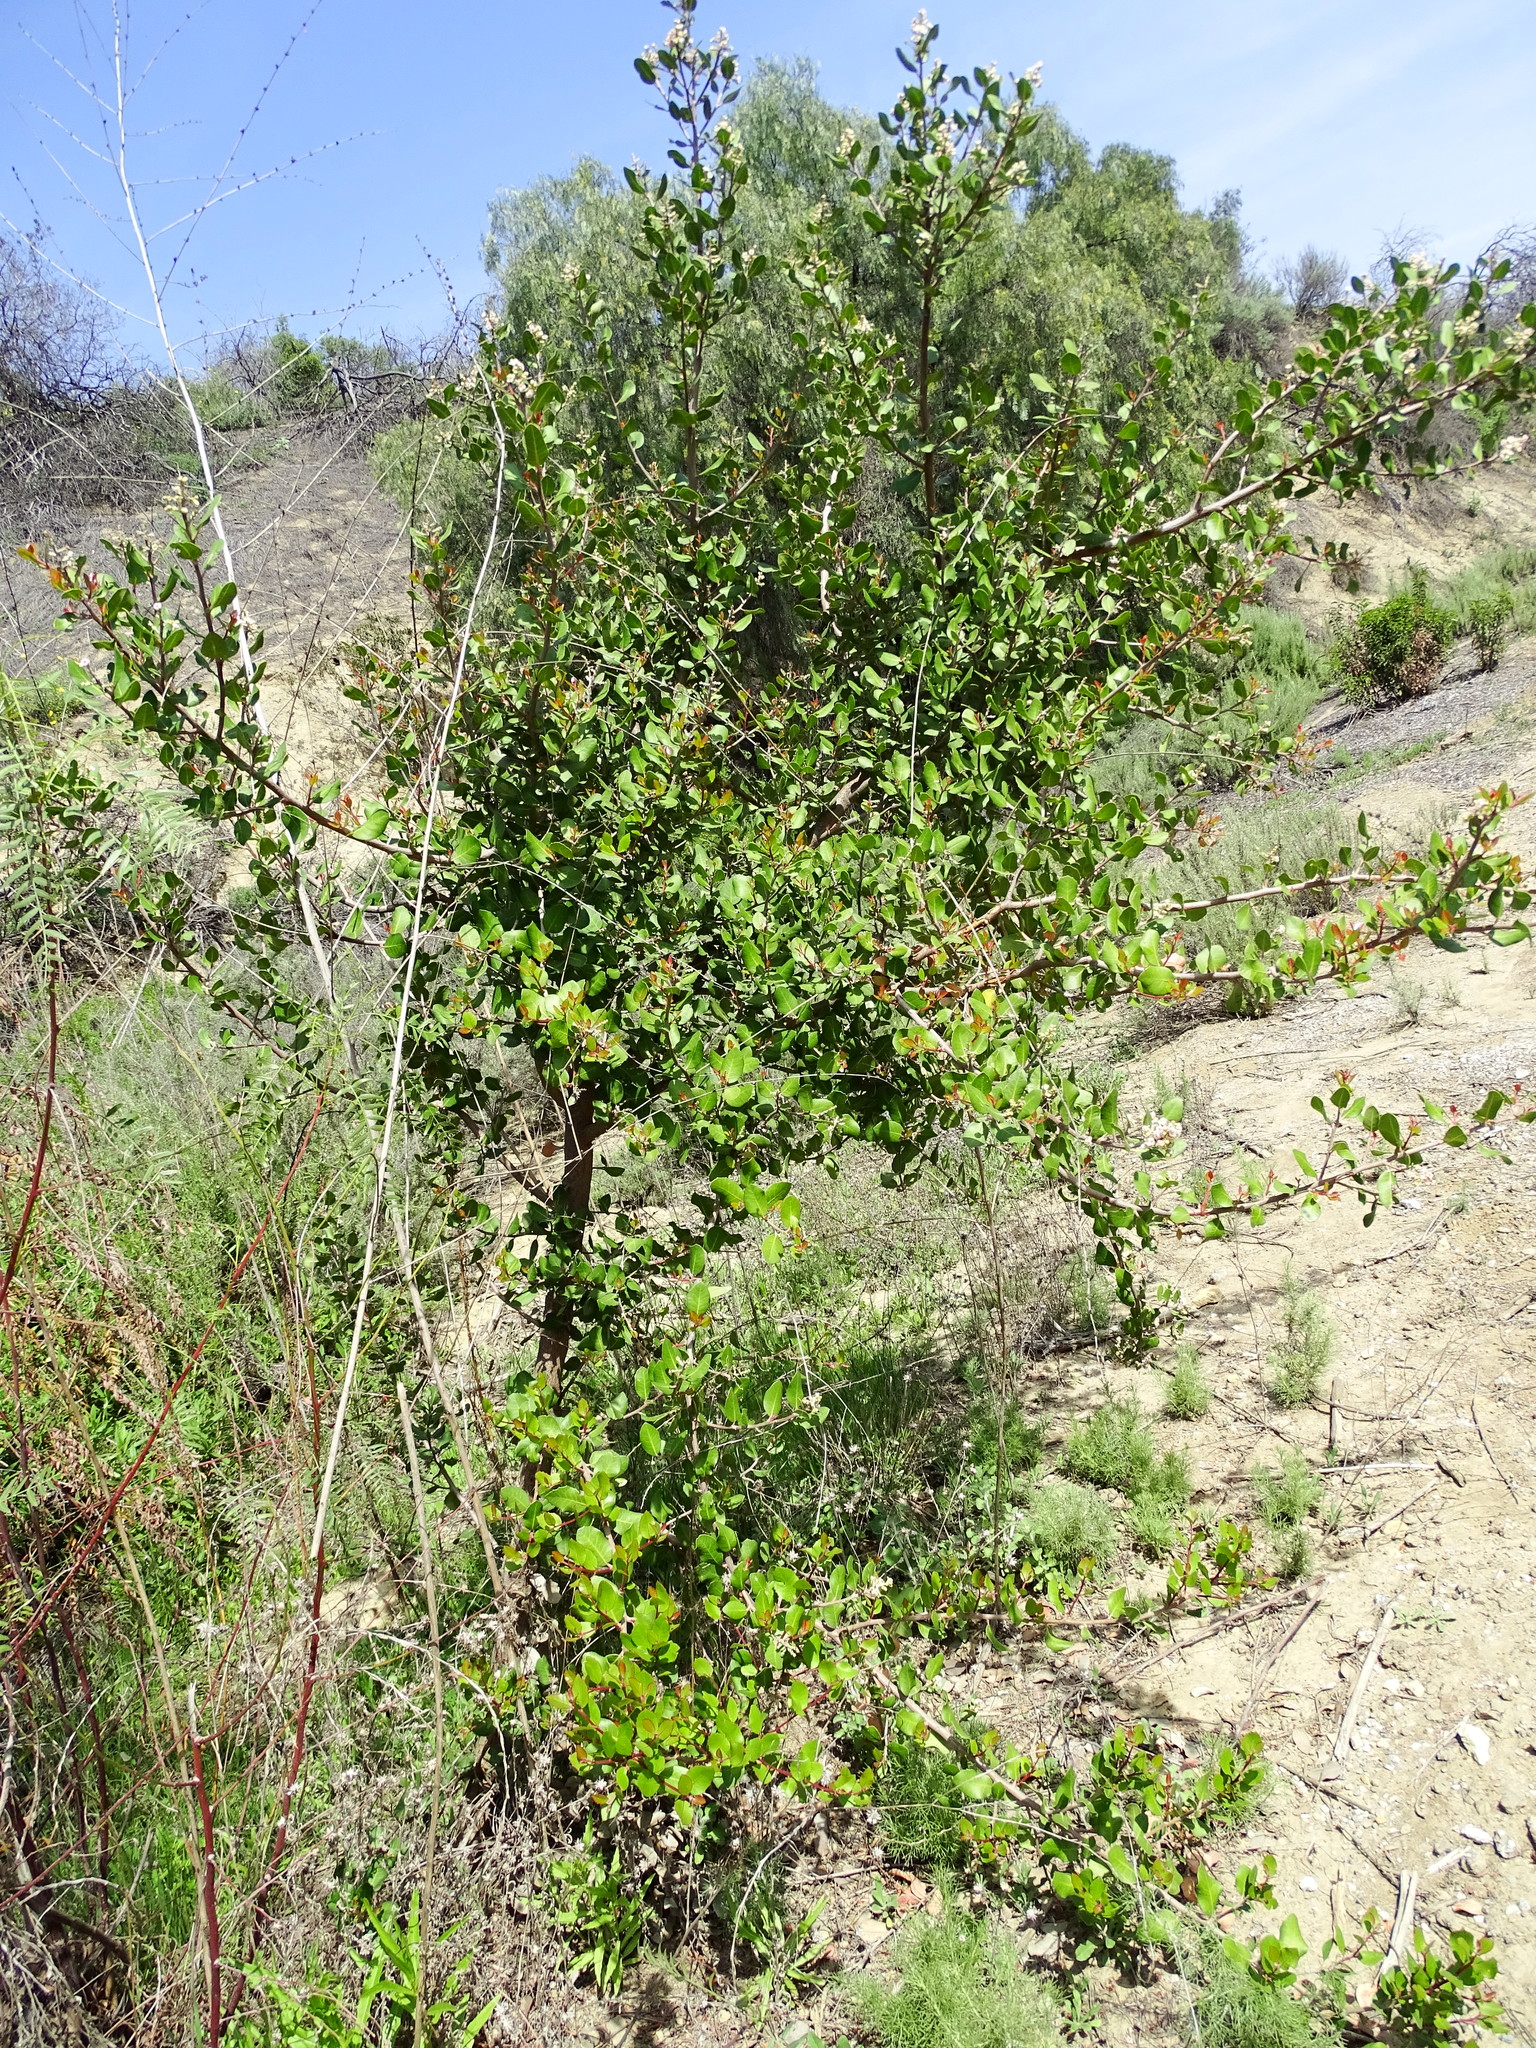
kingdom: Plantae
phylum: Tracheophyta
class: Magnoliopsida
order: Sapindales
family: Anacardiaceae
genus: Rhus
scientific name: Rhus integrifolia
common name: Lemonade sumac
